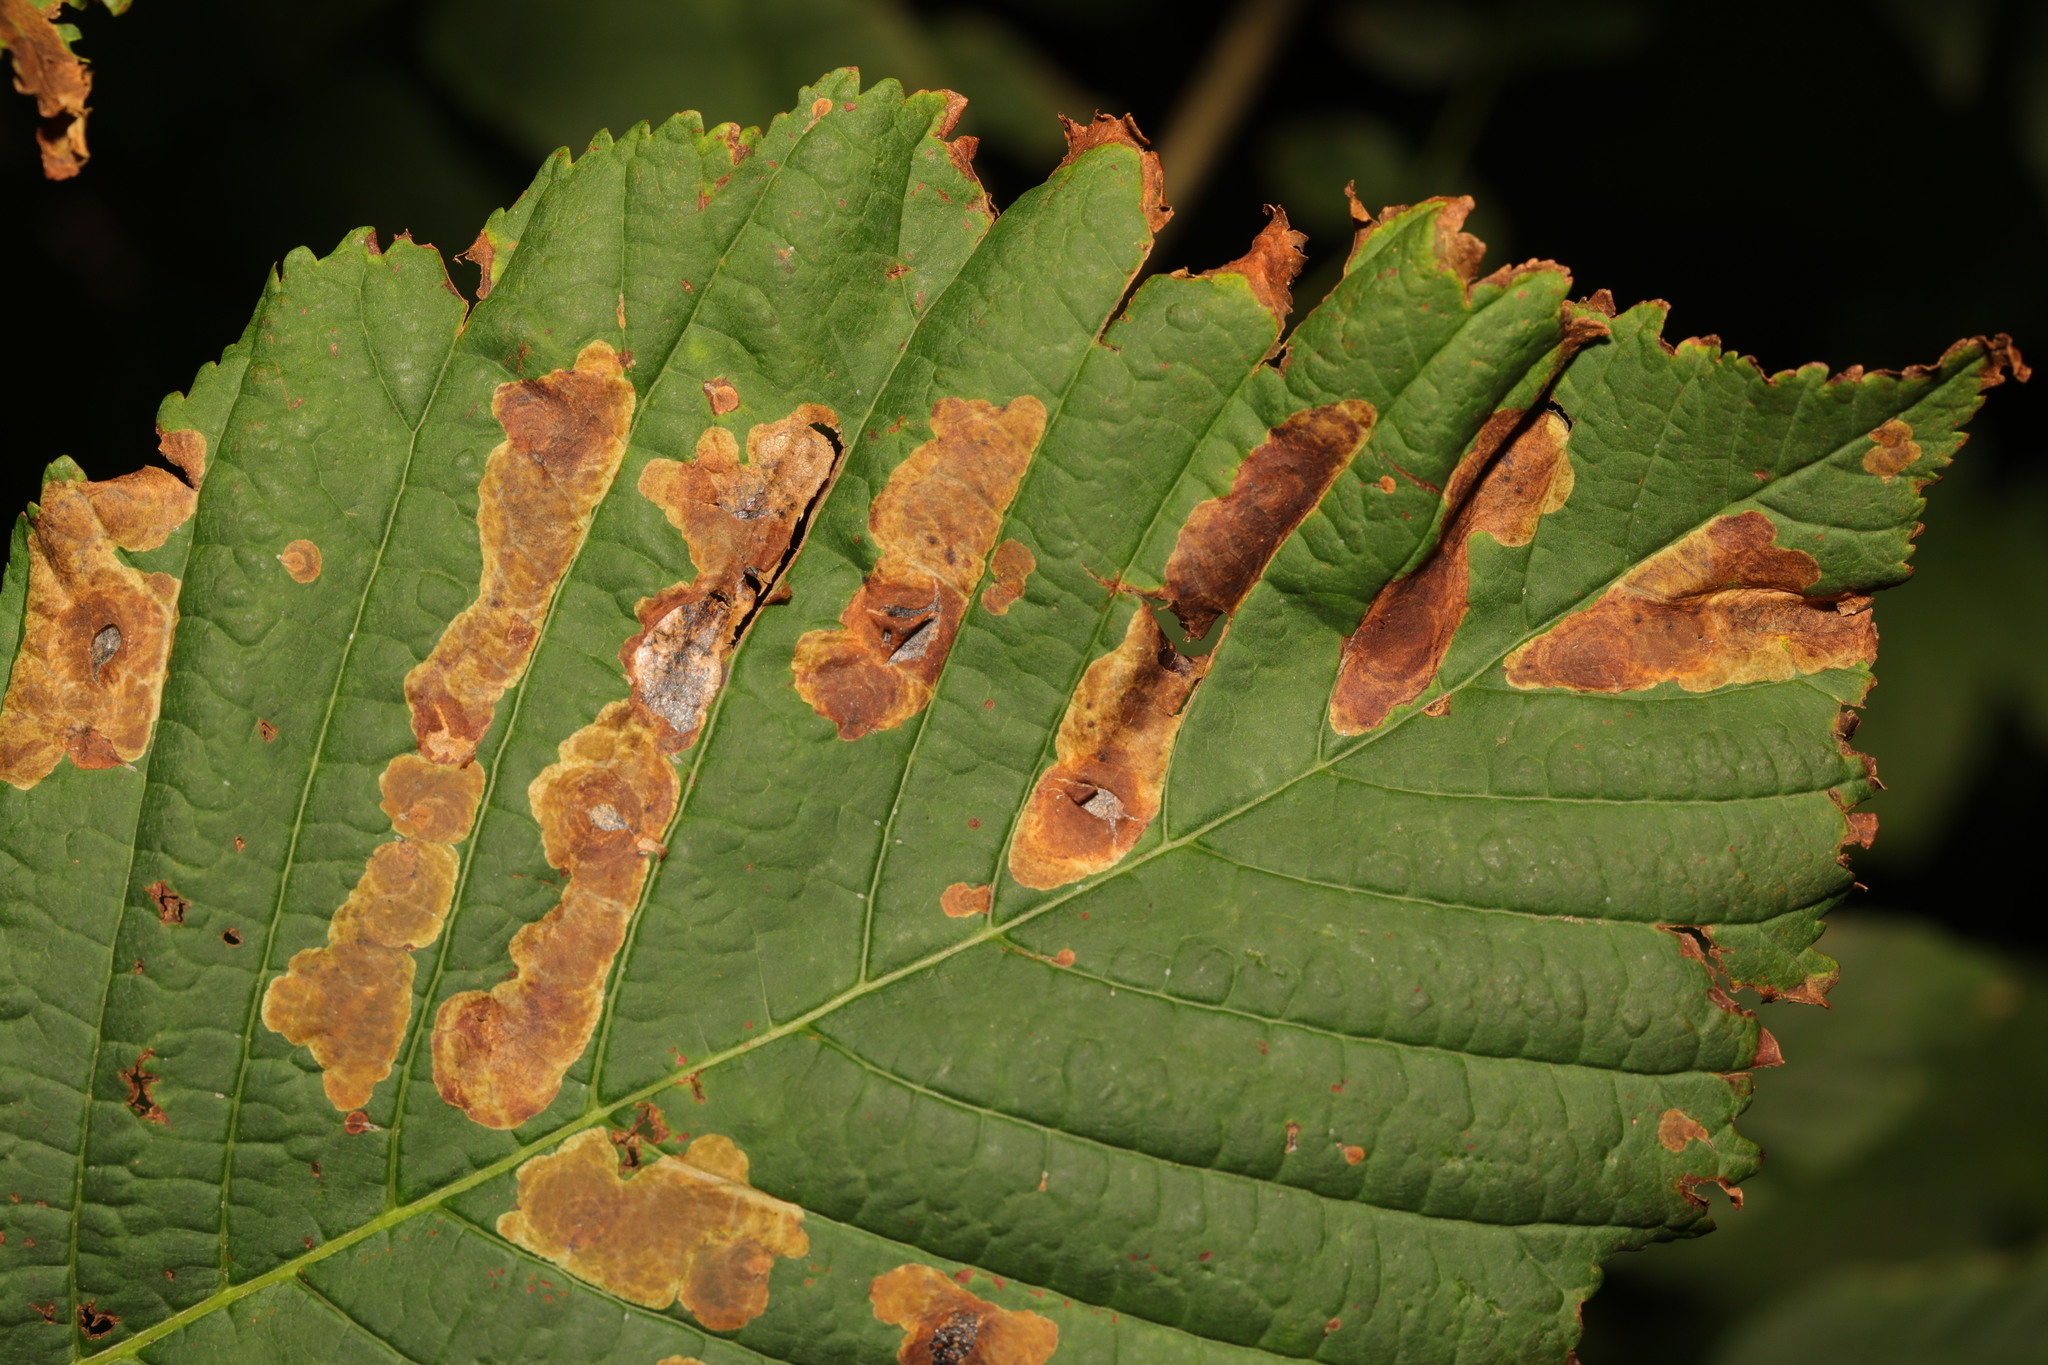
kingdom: Animalia
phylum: Arthropoda
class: Insecta
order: Lepidoptera
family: Gracillariidae
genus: Cameraria
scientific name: Cameraria ohridella
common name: Horse-chestnut leaf-miner
